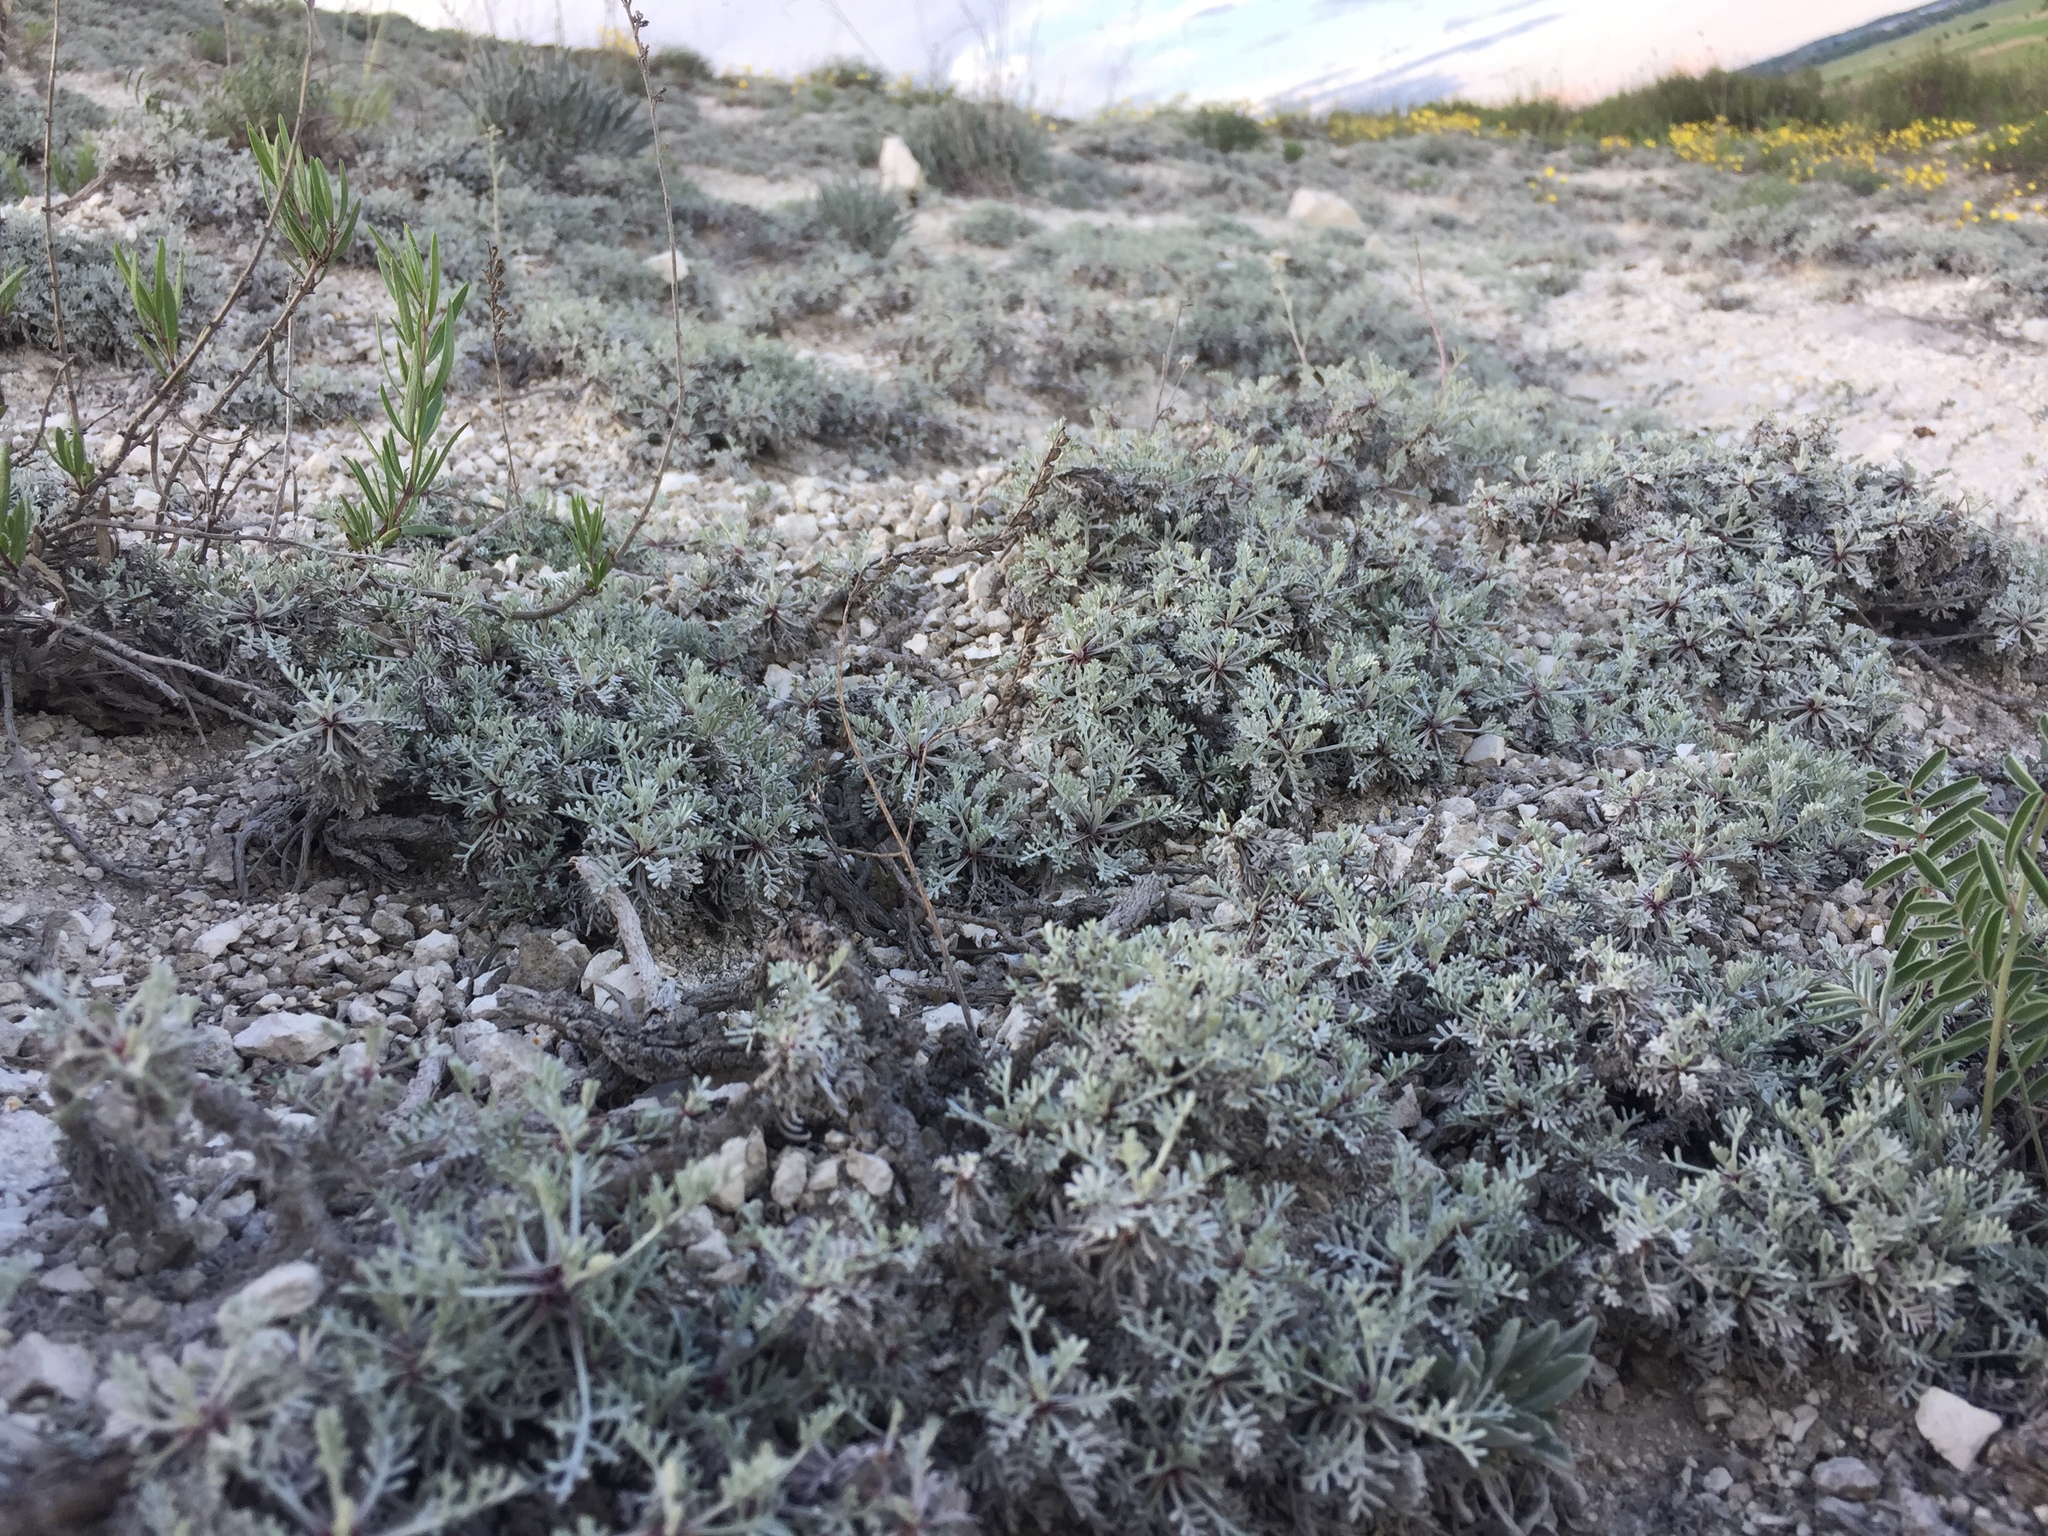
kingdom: Plantae
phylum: Tracheophyta
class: Magnoliopsida
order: Asterales
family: Asteraceae
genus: Artemisia
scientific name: Artemisia hololeuca
